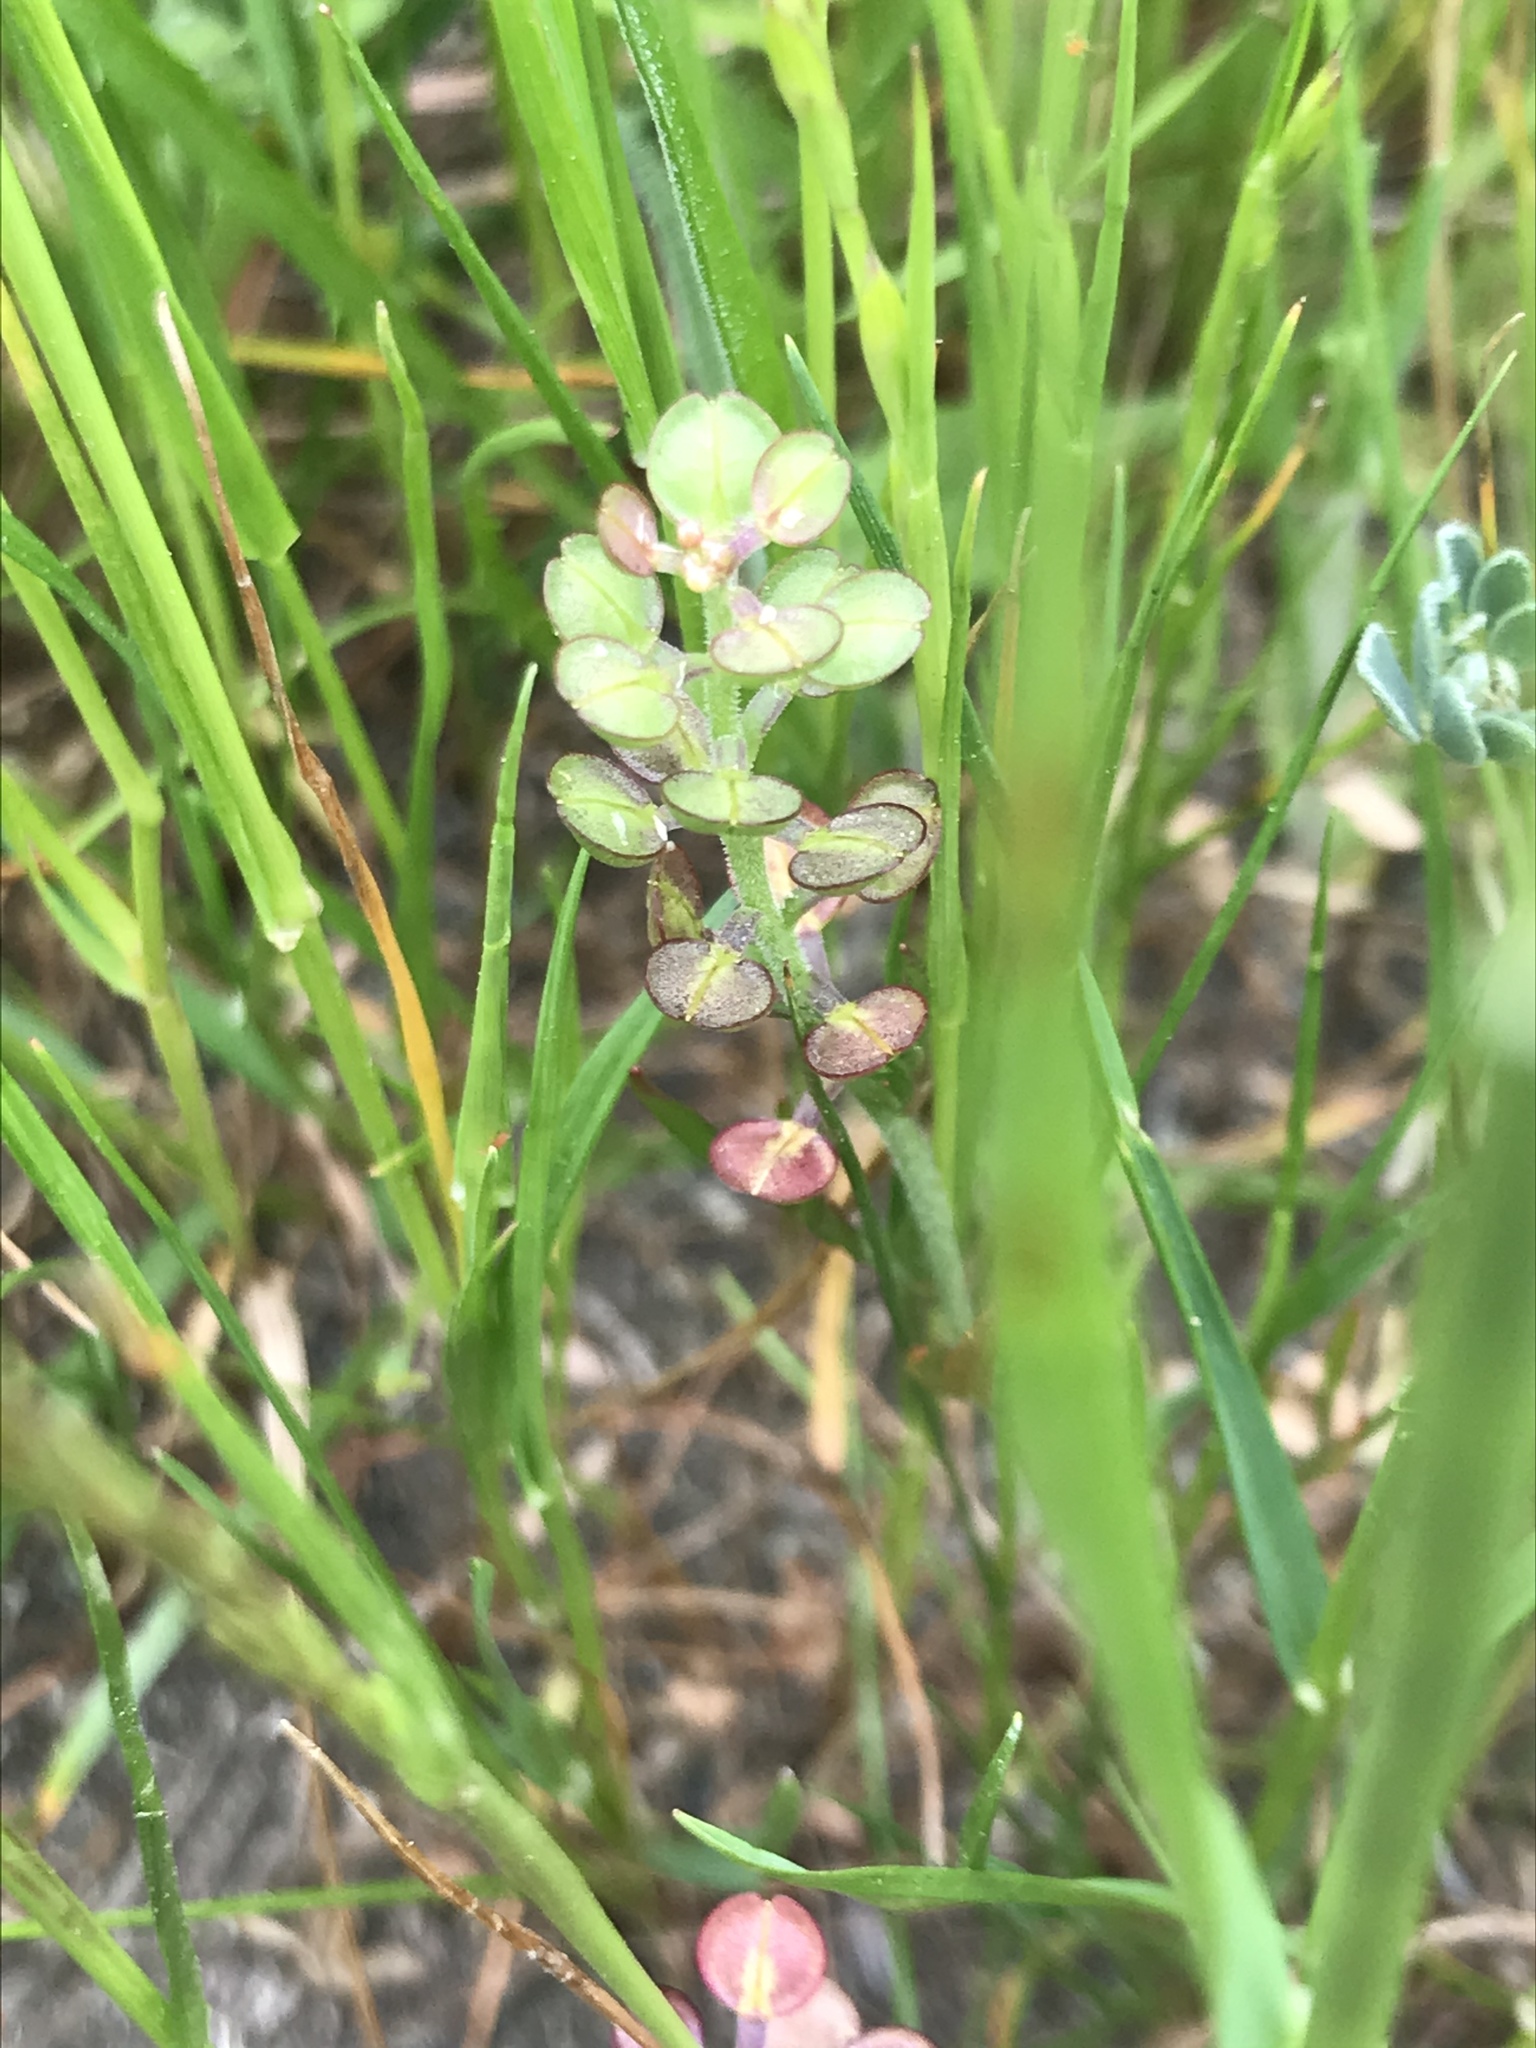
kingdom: Plantae
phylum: Tracheophyta
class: Magnoliopsida
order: Brassicales
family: Brassicaceae
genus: Lepidium
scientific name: Lepidium nitidum
